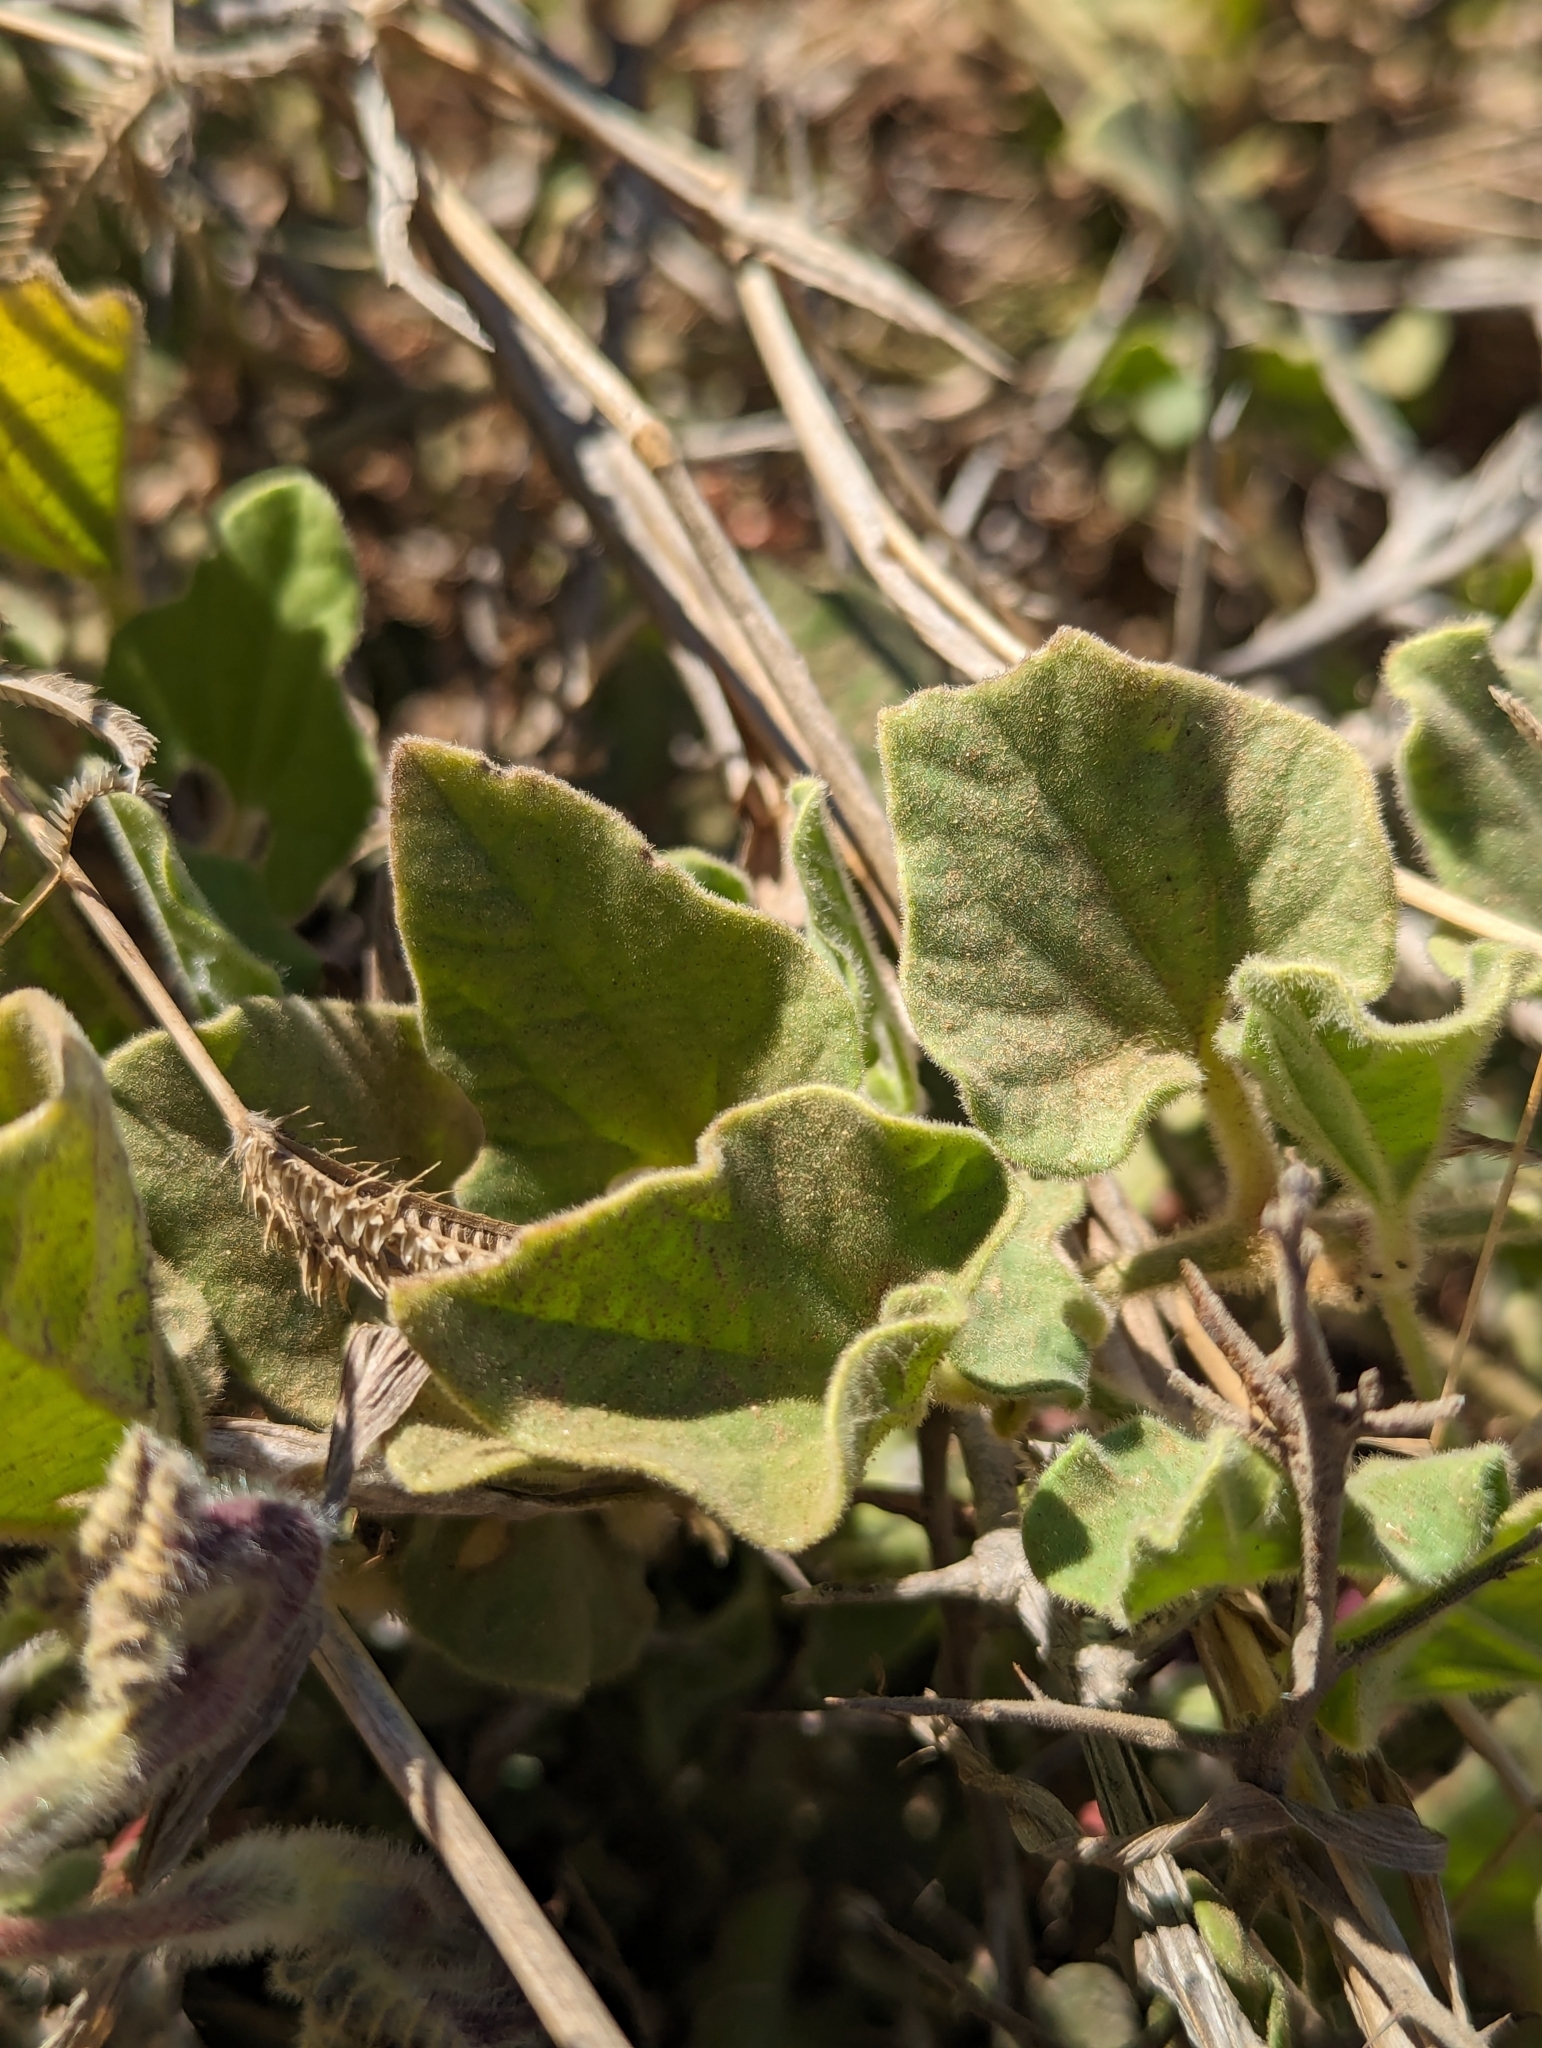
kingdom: Plantae
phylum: Tracheophyta
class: Magnoliopsida
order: Piperales
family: Aristolochiaceae
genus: Aristolochia
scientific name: Aristolochia monticola
